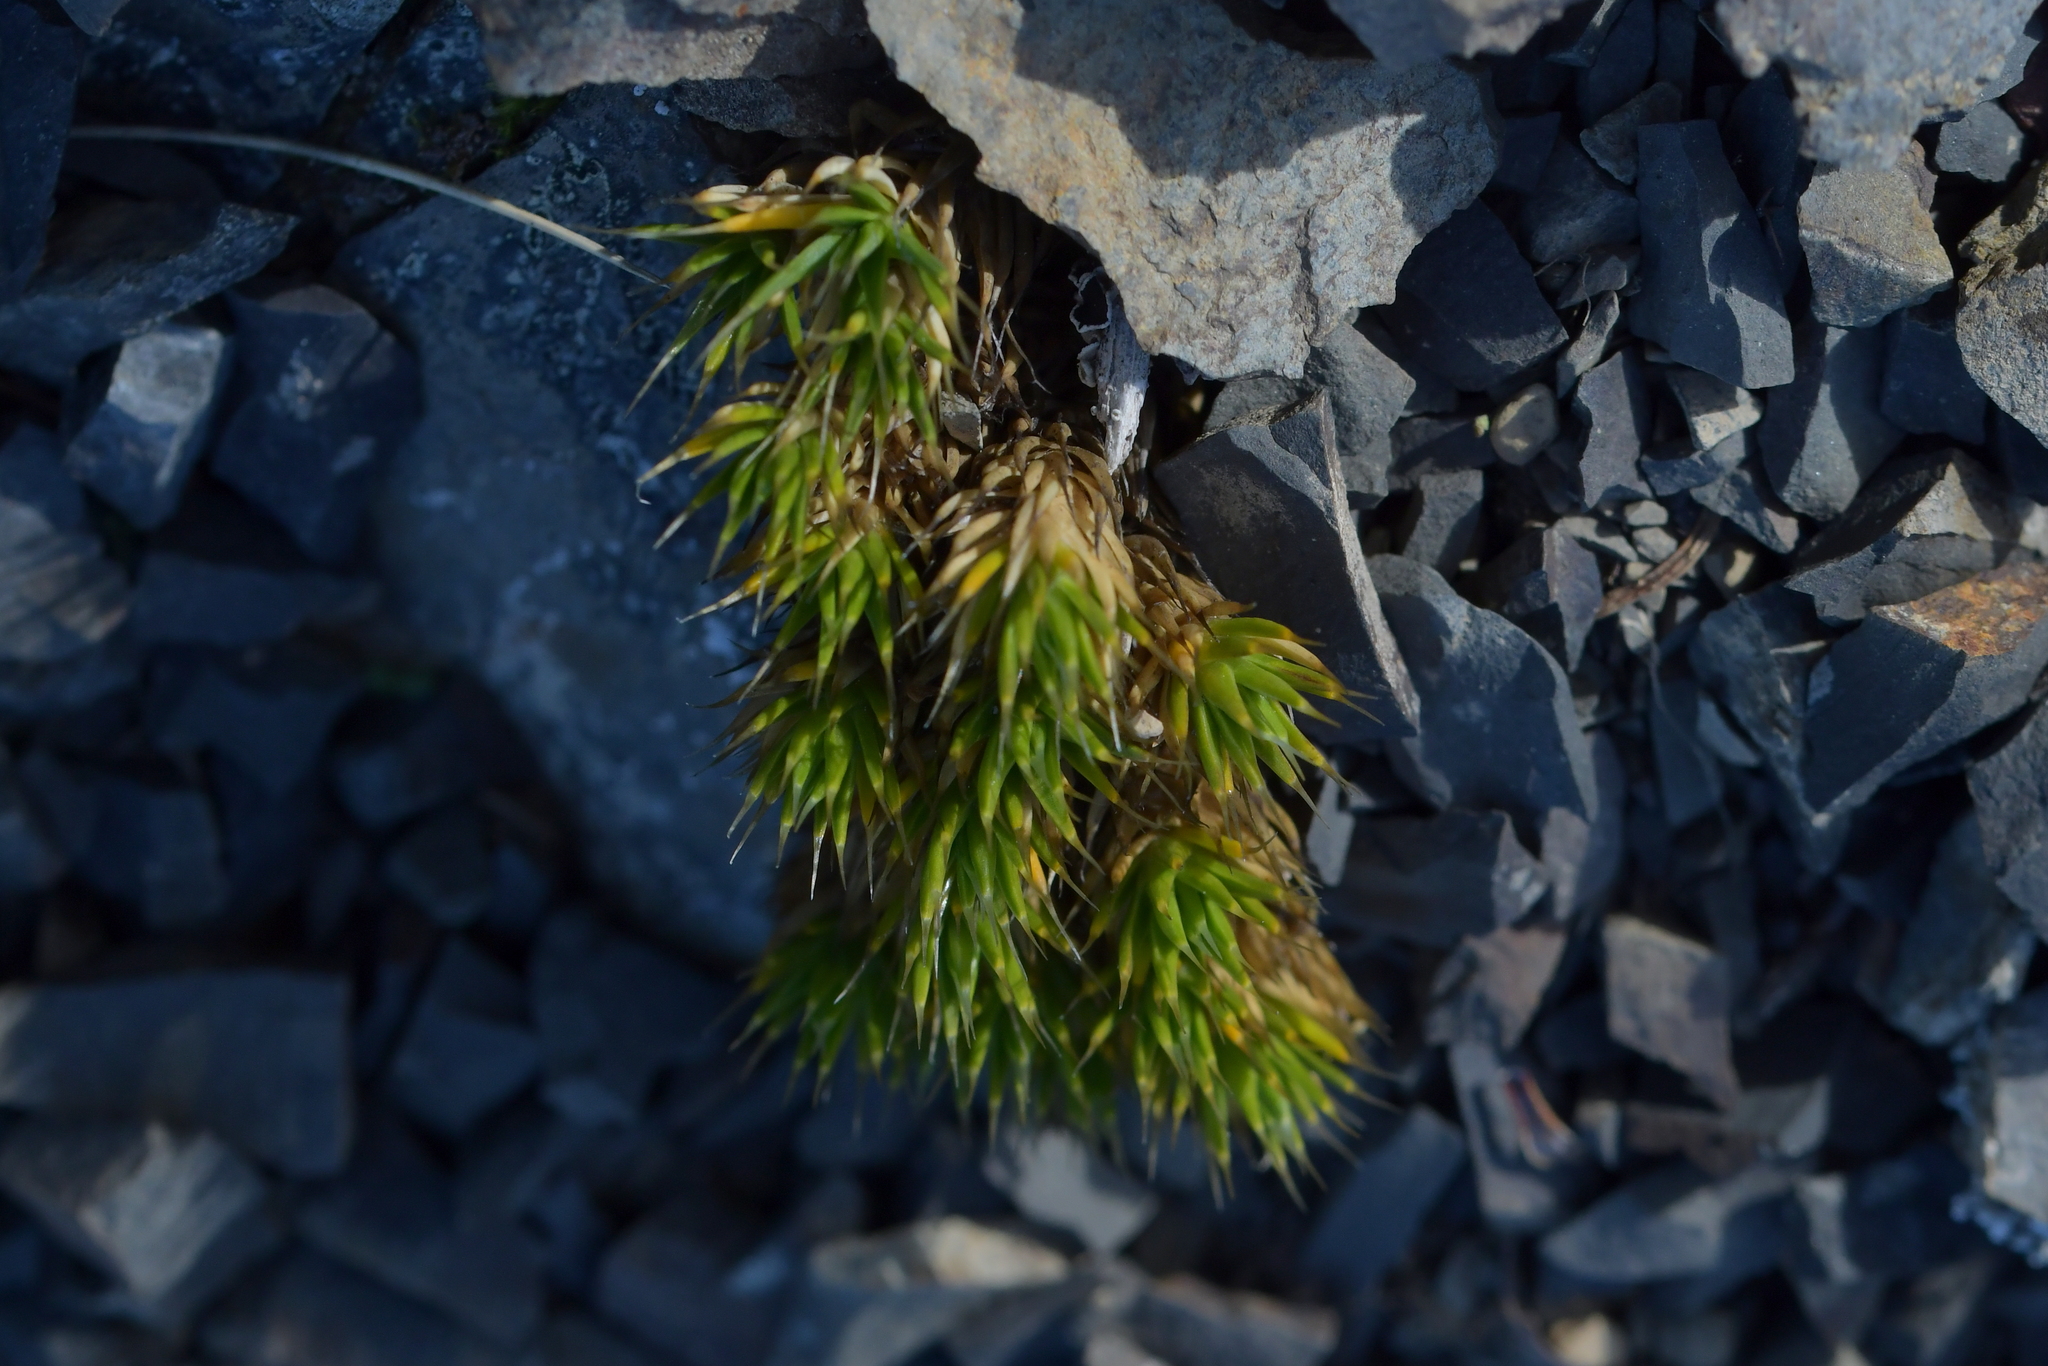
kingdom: Plantae
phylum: Tracheophyta
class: Magnoliopsida
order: Caryophyllales
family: Caryophyllaceae
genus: Colobanthus
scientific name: Colobanthus acicularis
